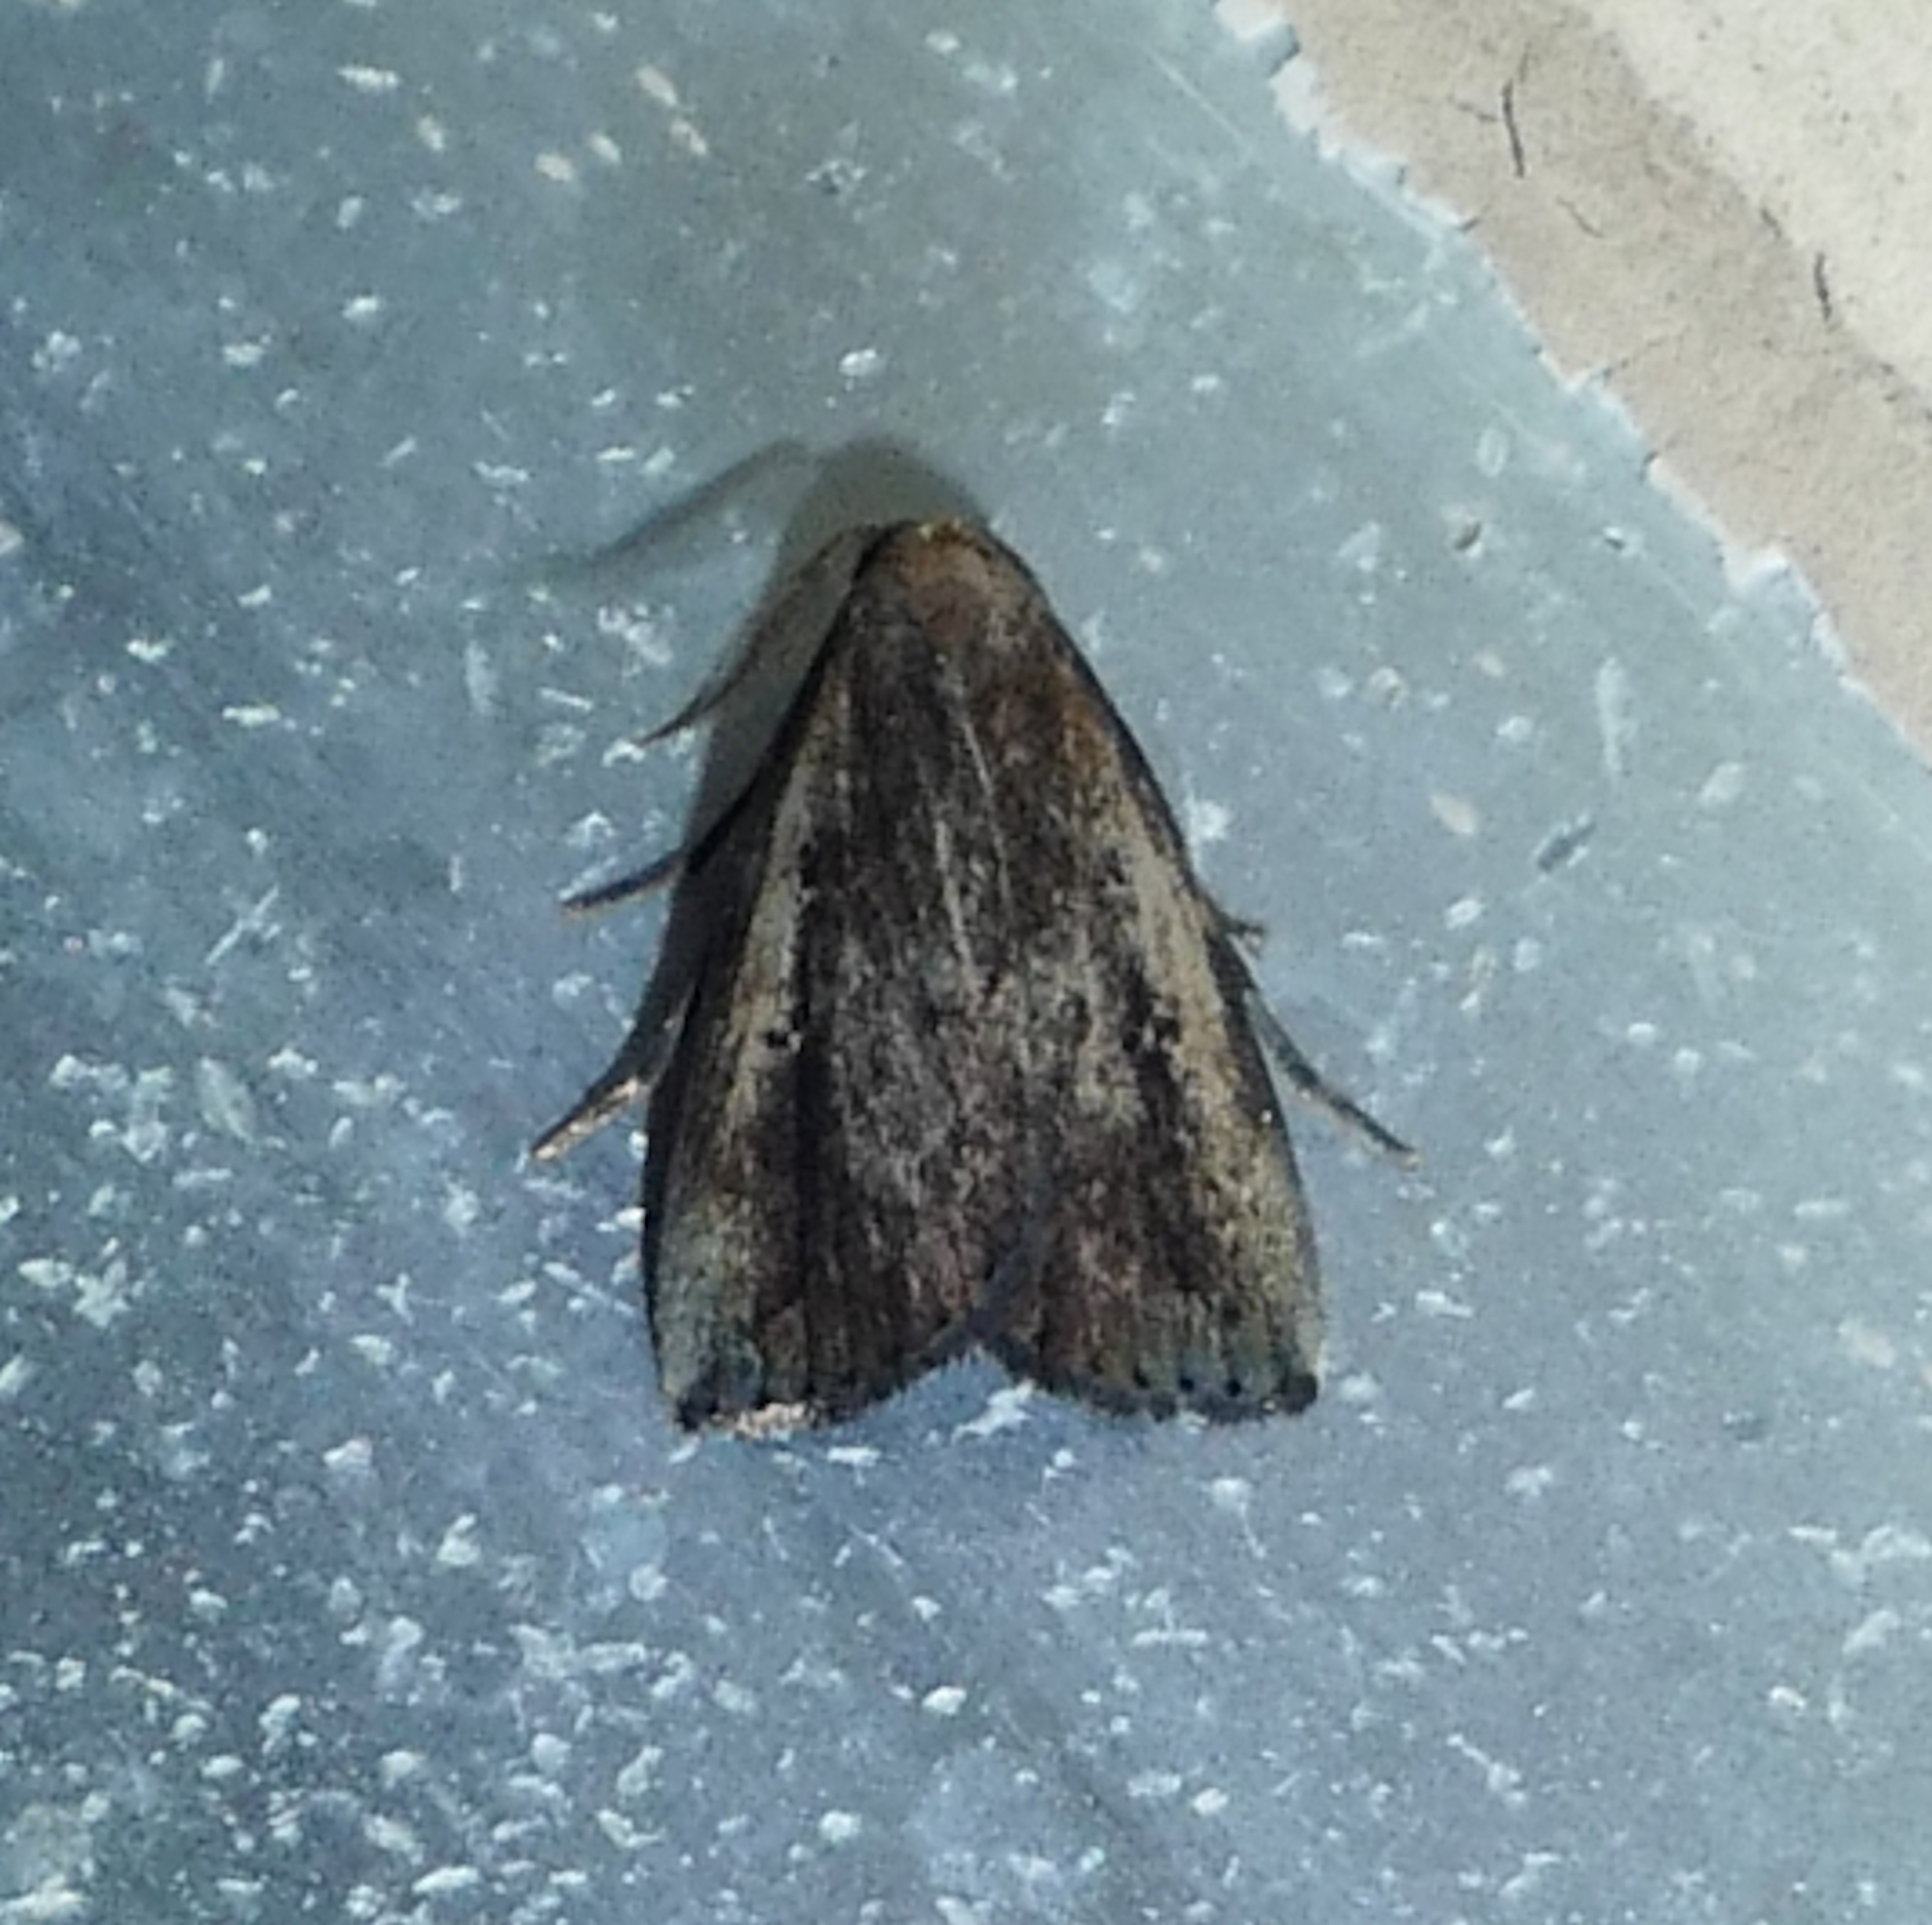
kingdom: Animalia
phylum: Arthropoda
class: Insecta
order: Lepidoptera
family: Erebidae
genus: Macrochilo
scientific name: Macrochilo orciferalis
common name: Bronzy owlet
